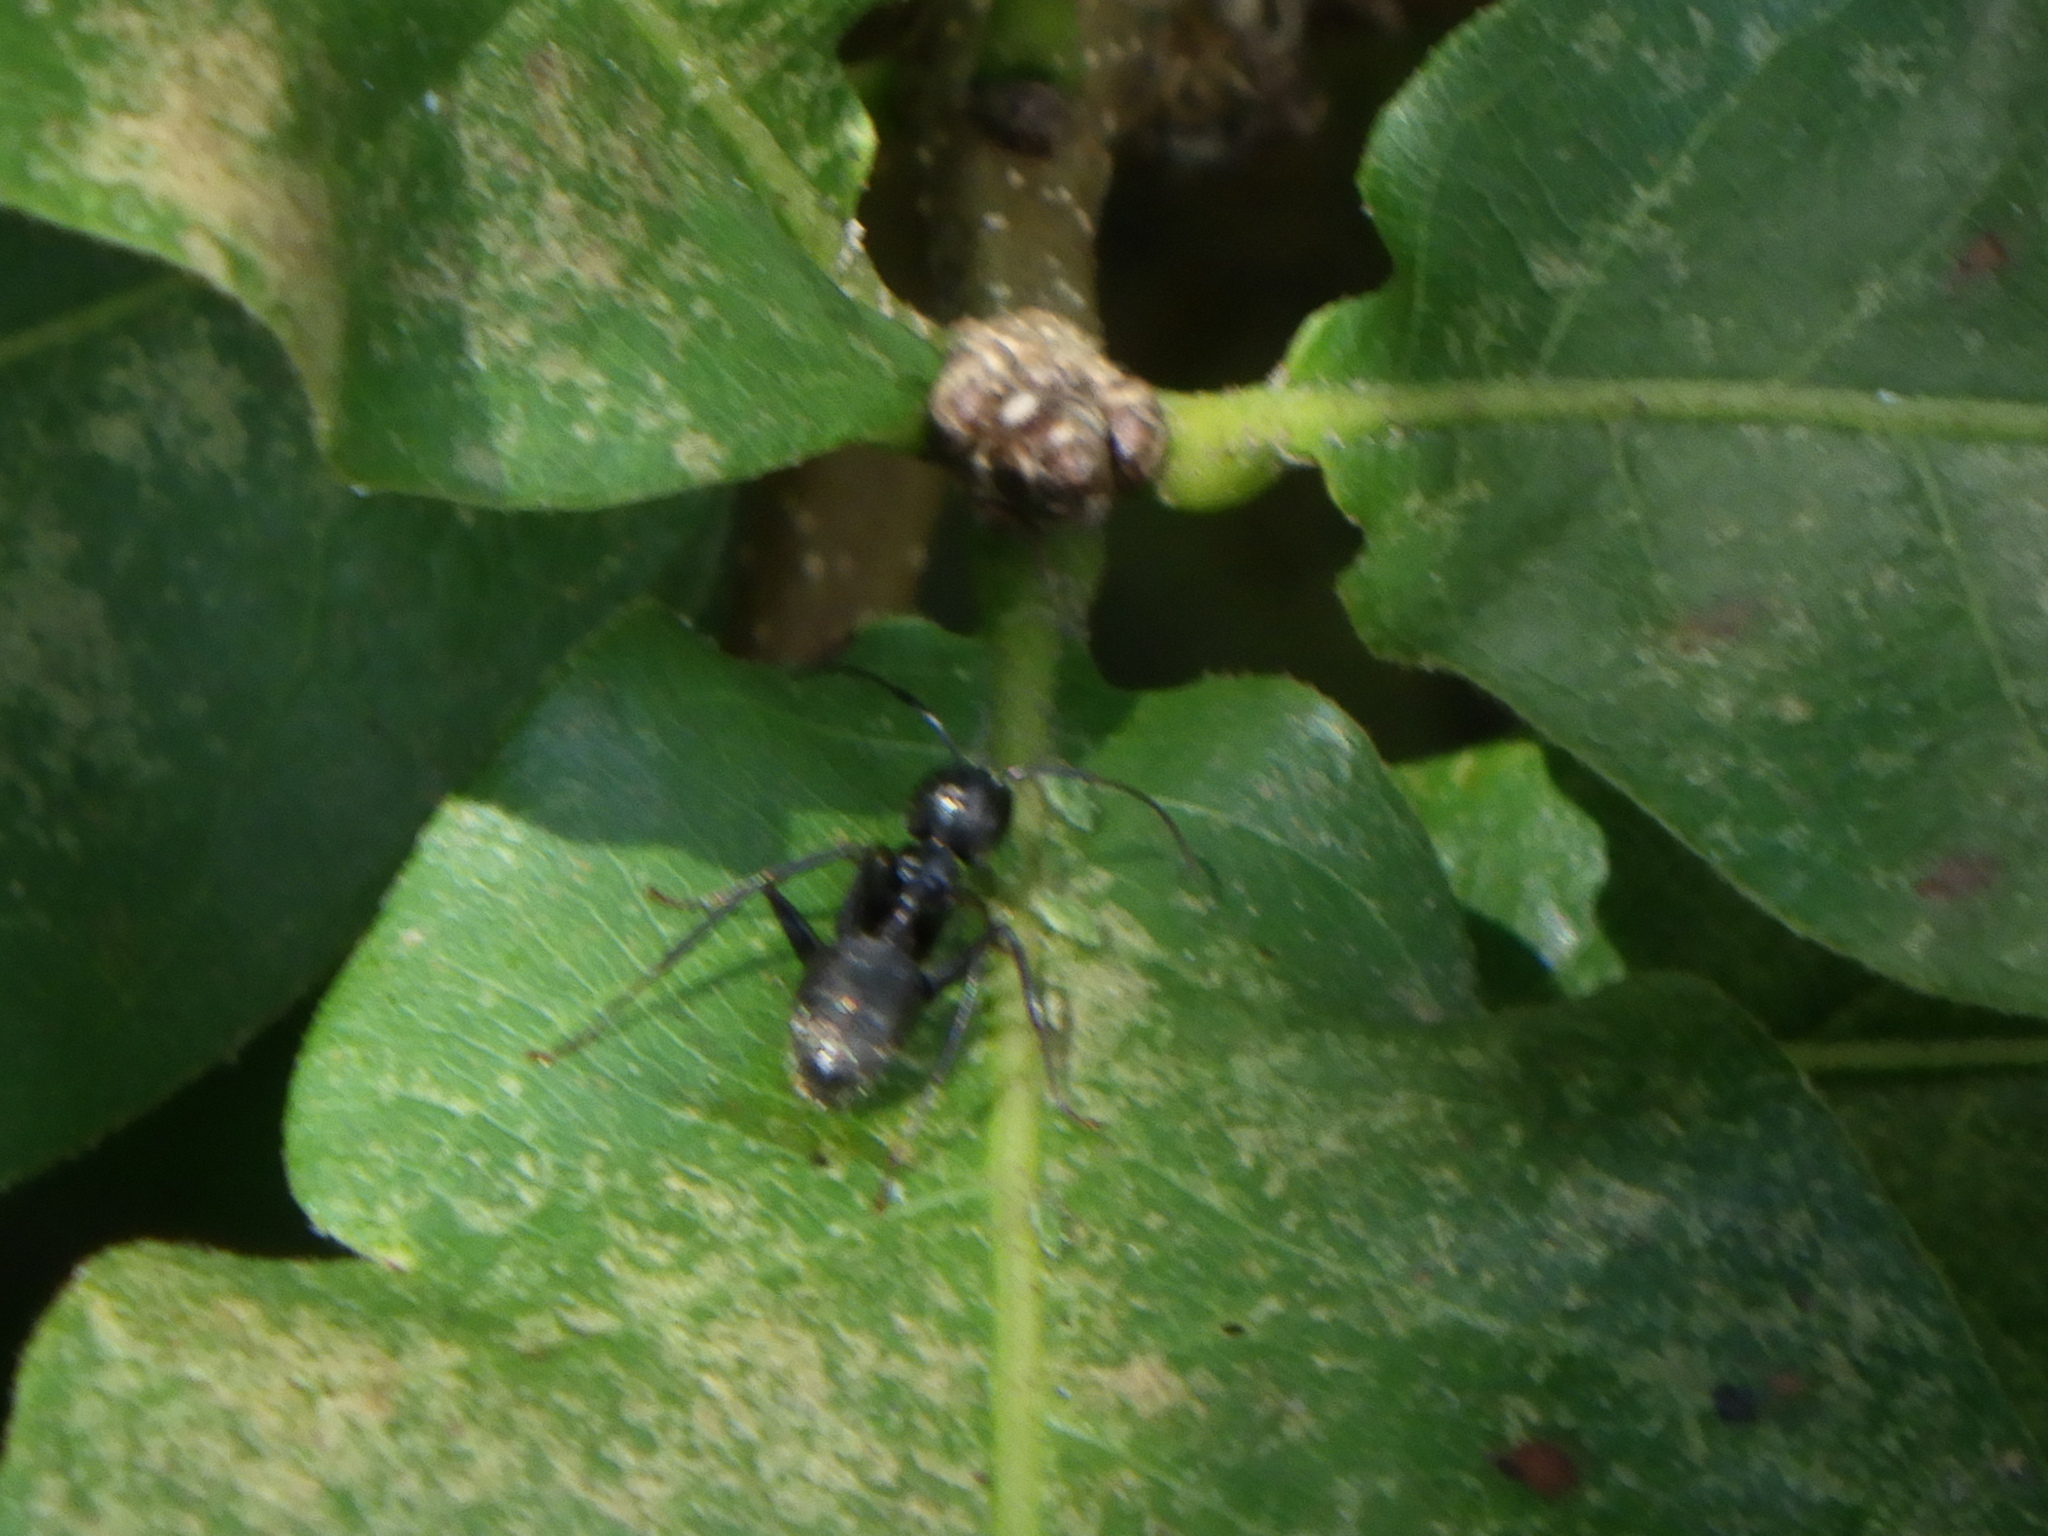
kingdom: Animalia
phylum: Arthropoda
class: Insecta
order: Hymenoptera
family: Formicidae
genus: Camponotus
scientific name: Camponotus pennsylvanicus
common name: Black carpenter ant
